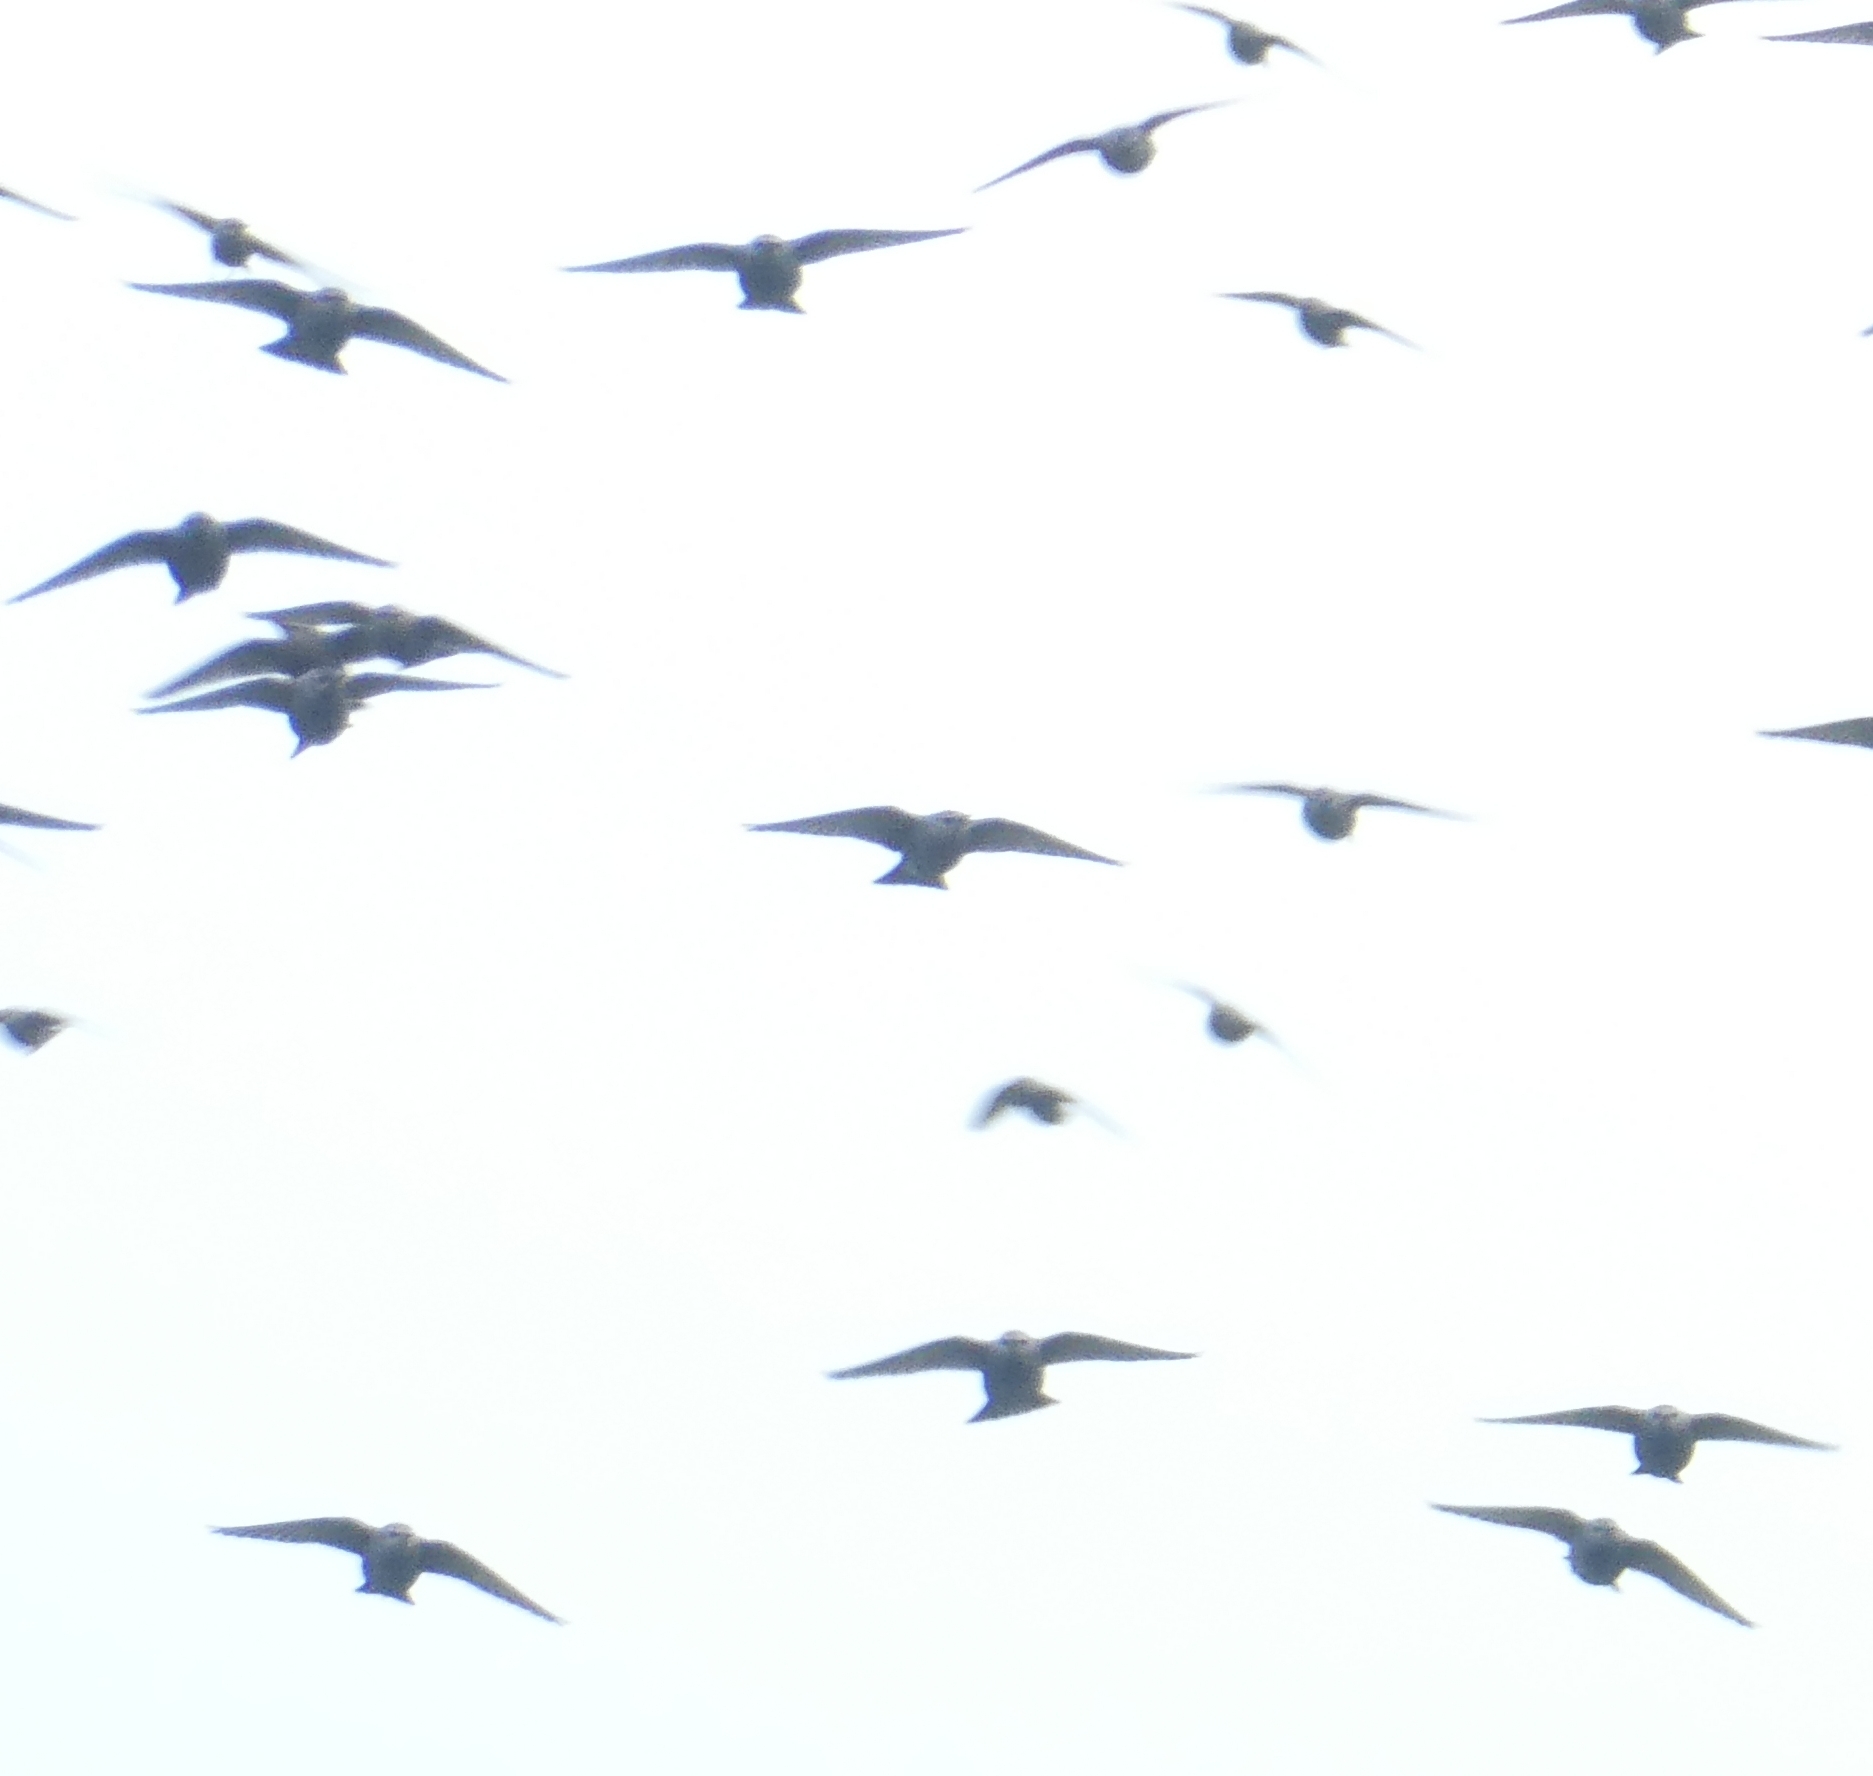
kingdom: Animalia
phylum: Chordata
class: Aves
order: Passeriformes
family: Sturnidae
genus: Sturnus
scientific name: Sturnus vulgaris
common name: Common starling
